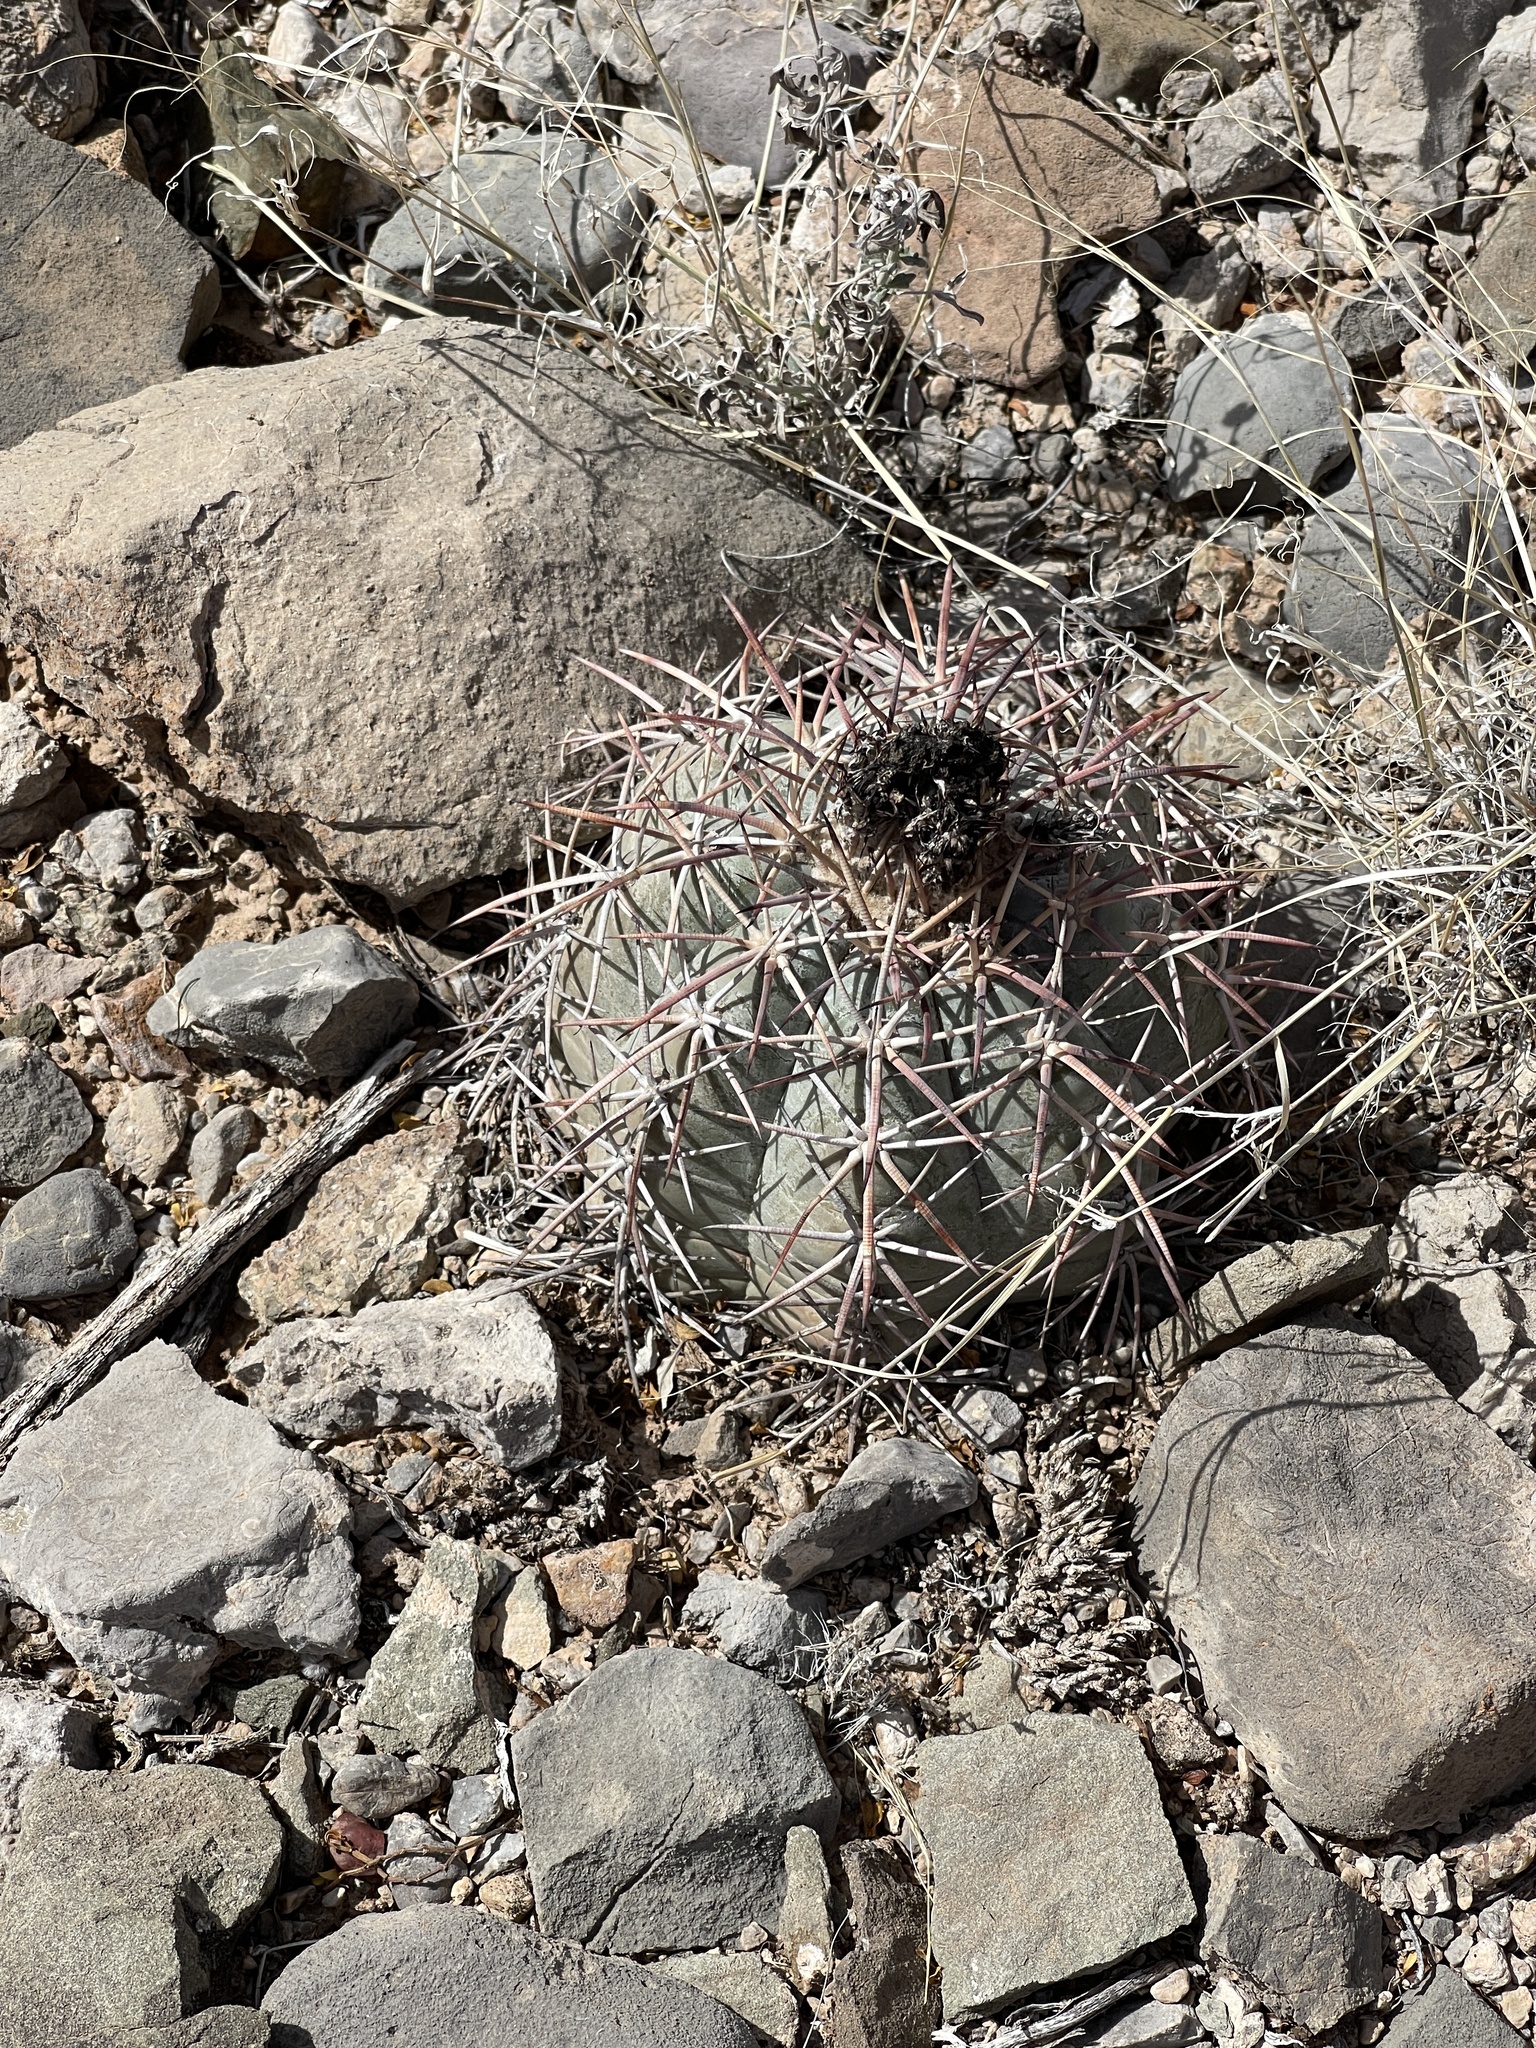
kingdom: Plantae
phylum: Tracheophyta
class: Magnoliopsida
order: Caryophyllales
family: Cactaceae
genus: Echinocactus
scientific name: Echinocactus horizonthalonius
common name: Devilshead
